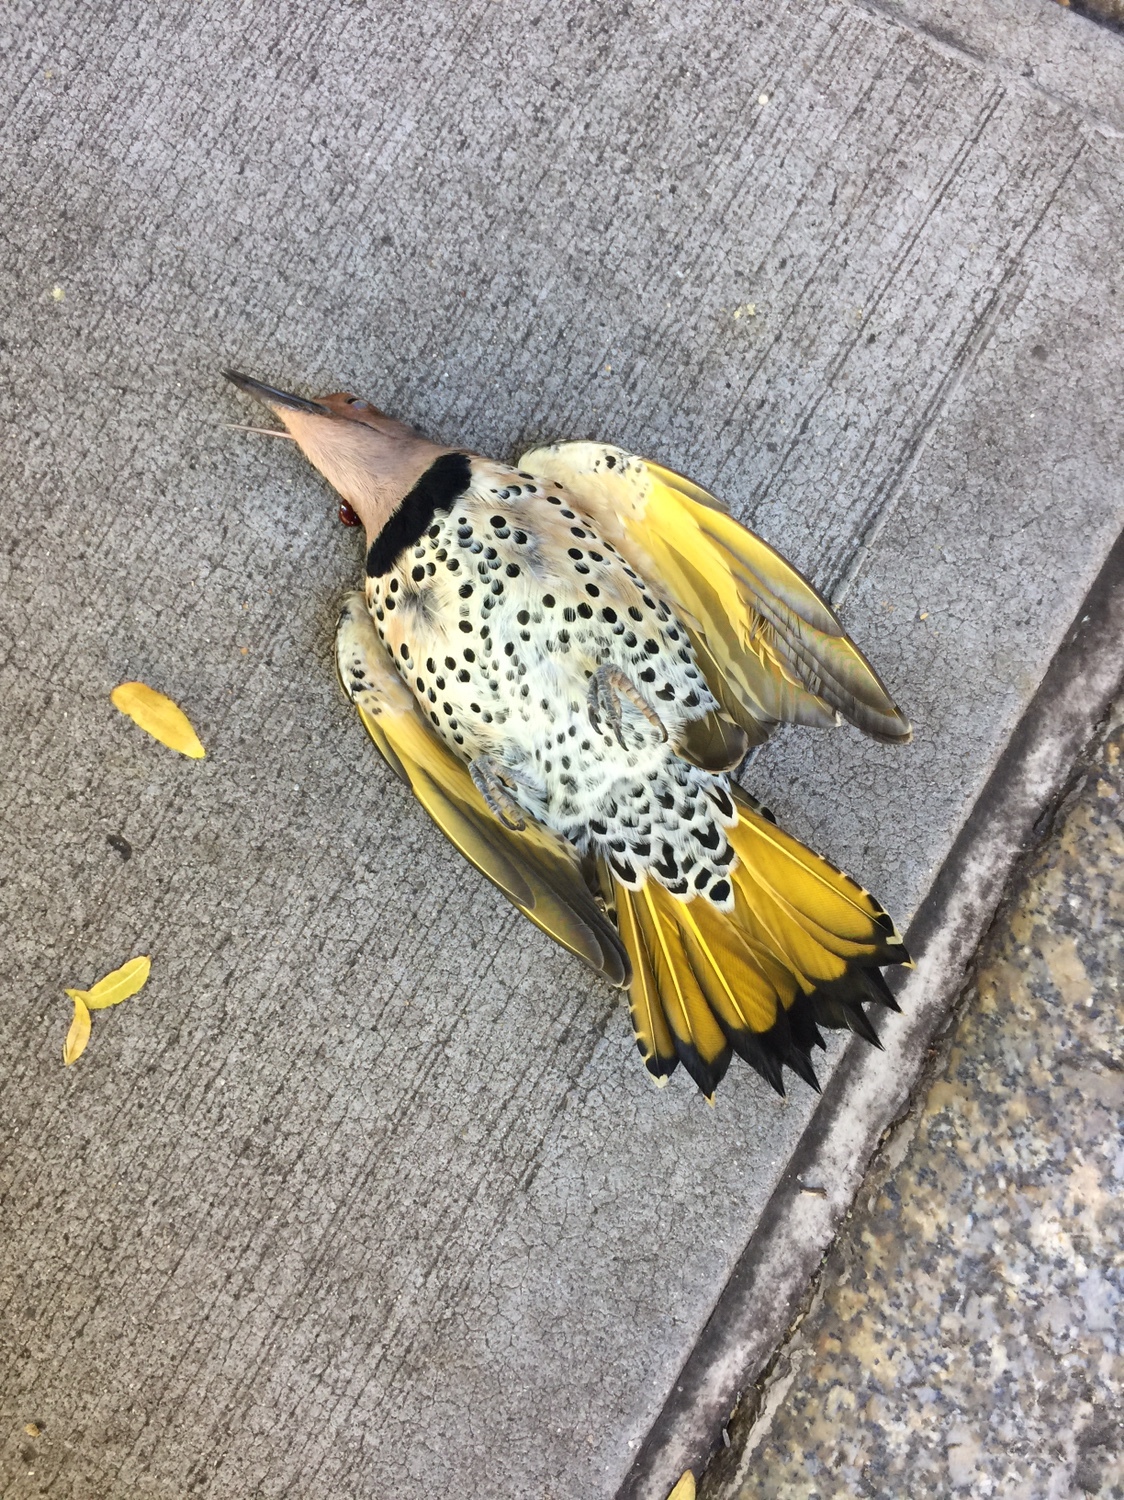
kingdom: Animalia
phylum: Chordata
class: Aves
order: Piciformes
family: Picidae
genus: Colaptes
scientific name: Colaptes auratus
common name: Northern flicker
